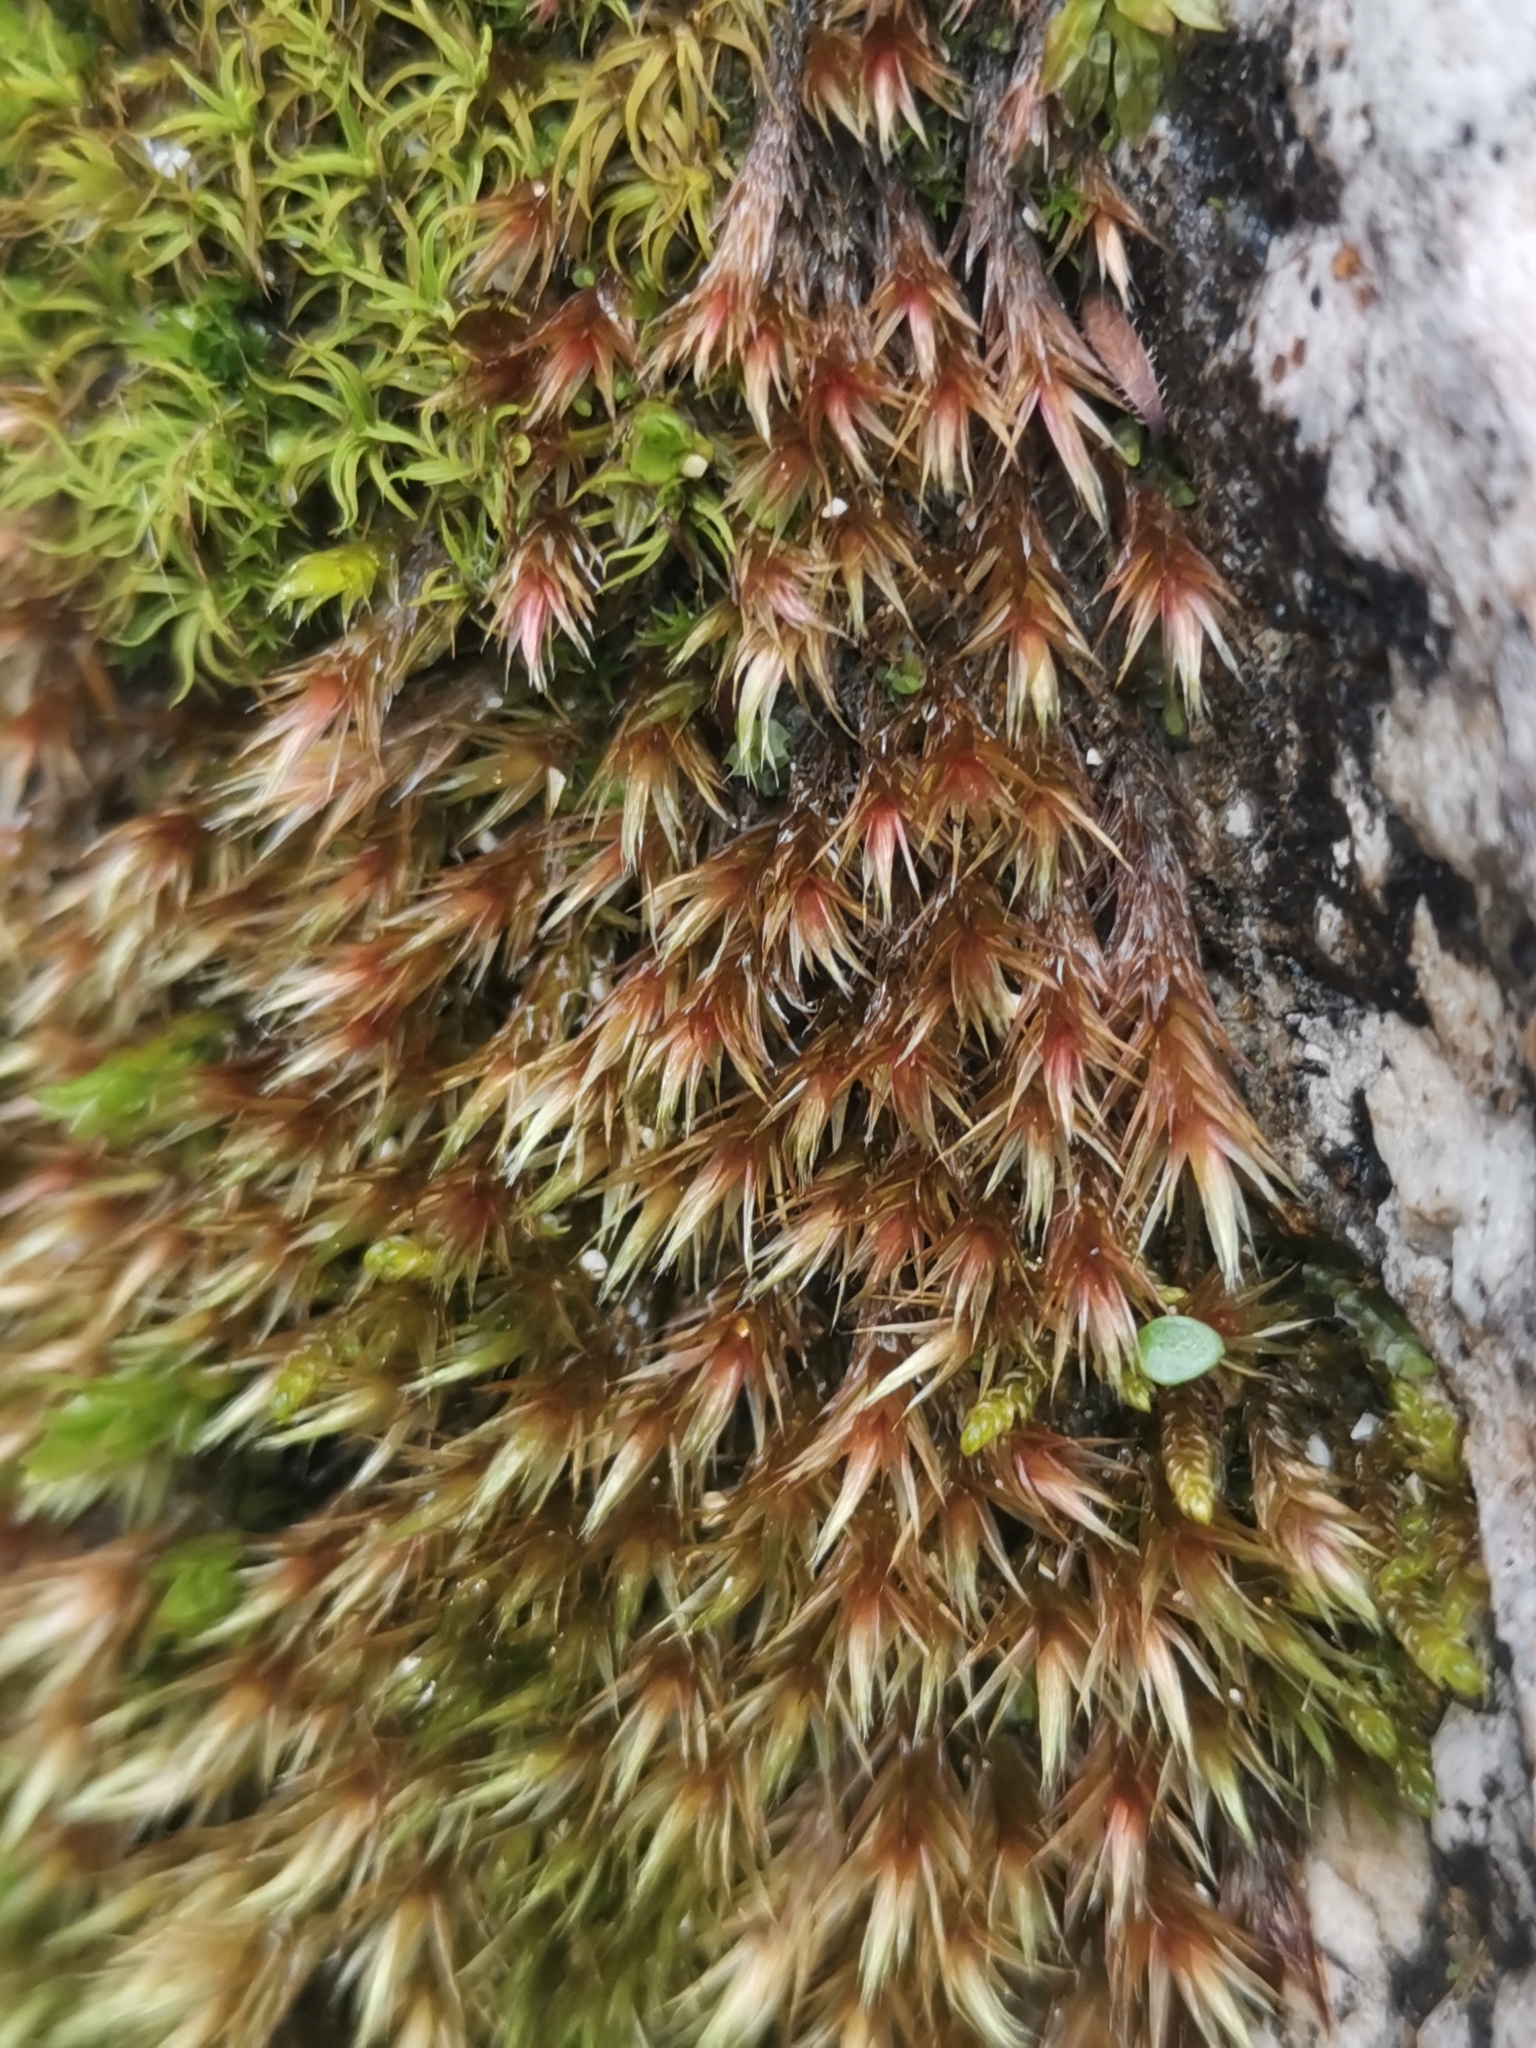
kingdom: Plantae
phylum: Bryophyta
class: Bryopsida
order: Hypnales
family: Plagiotheciaceae
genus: Orthothecium
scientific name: Orthothecium rufescens
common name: Red leskea
